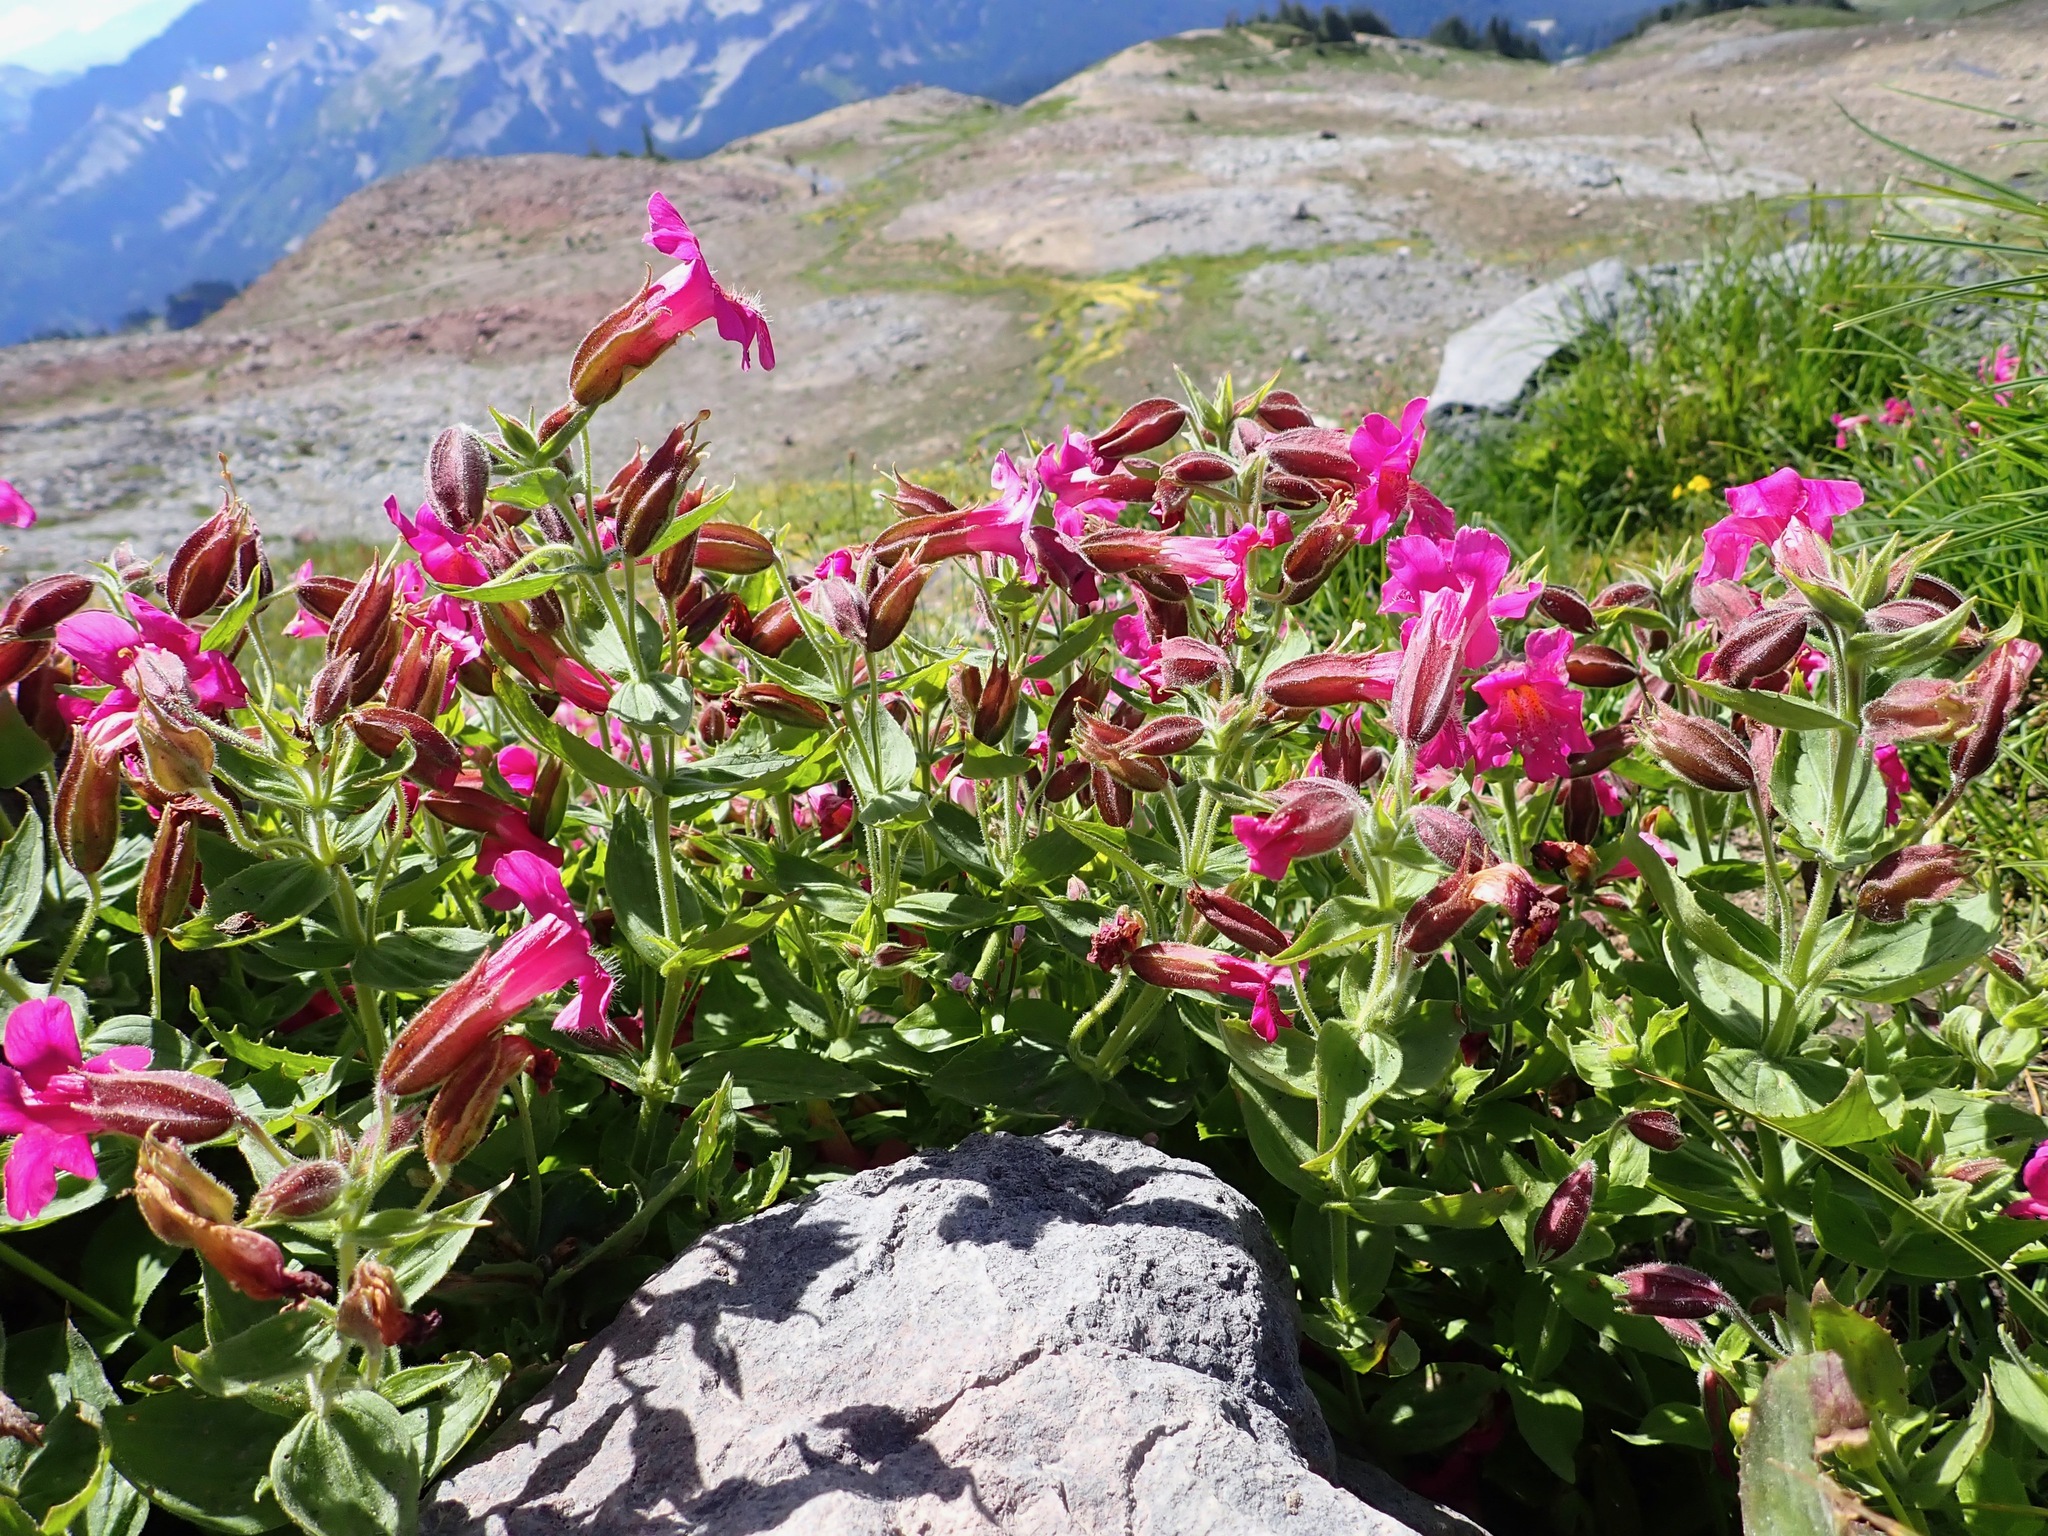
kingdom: Plantae
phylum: Tracheophyta
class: Magnoliopsida
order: Lamiales
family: Phrymaceae
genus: Erythranthe
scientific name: Erythranthe lewisii
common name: Lewis's monkey-flower
